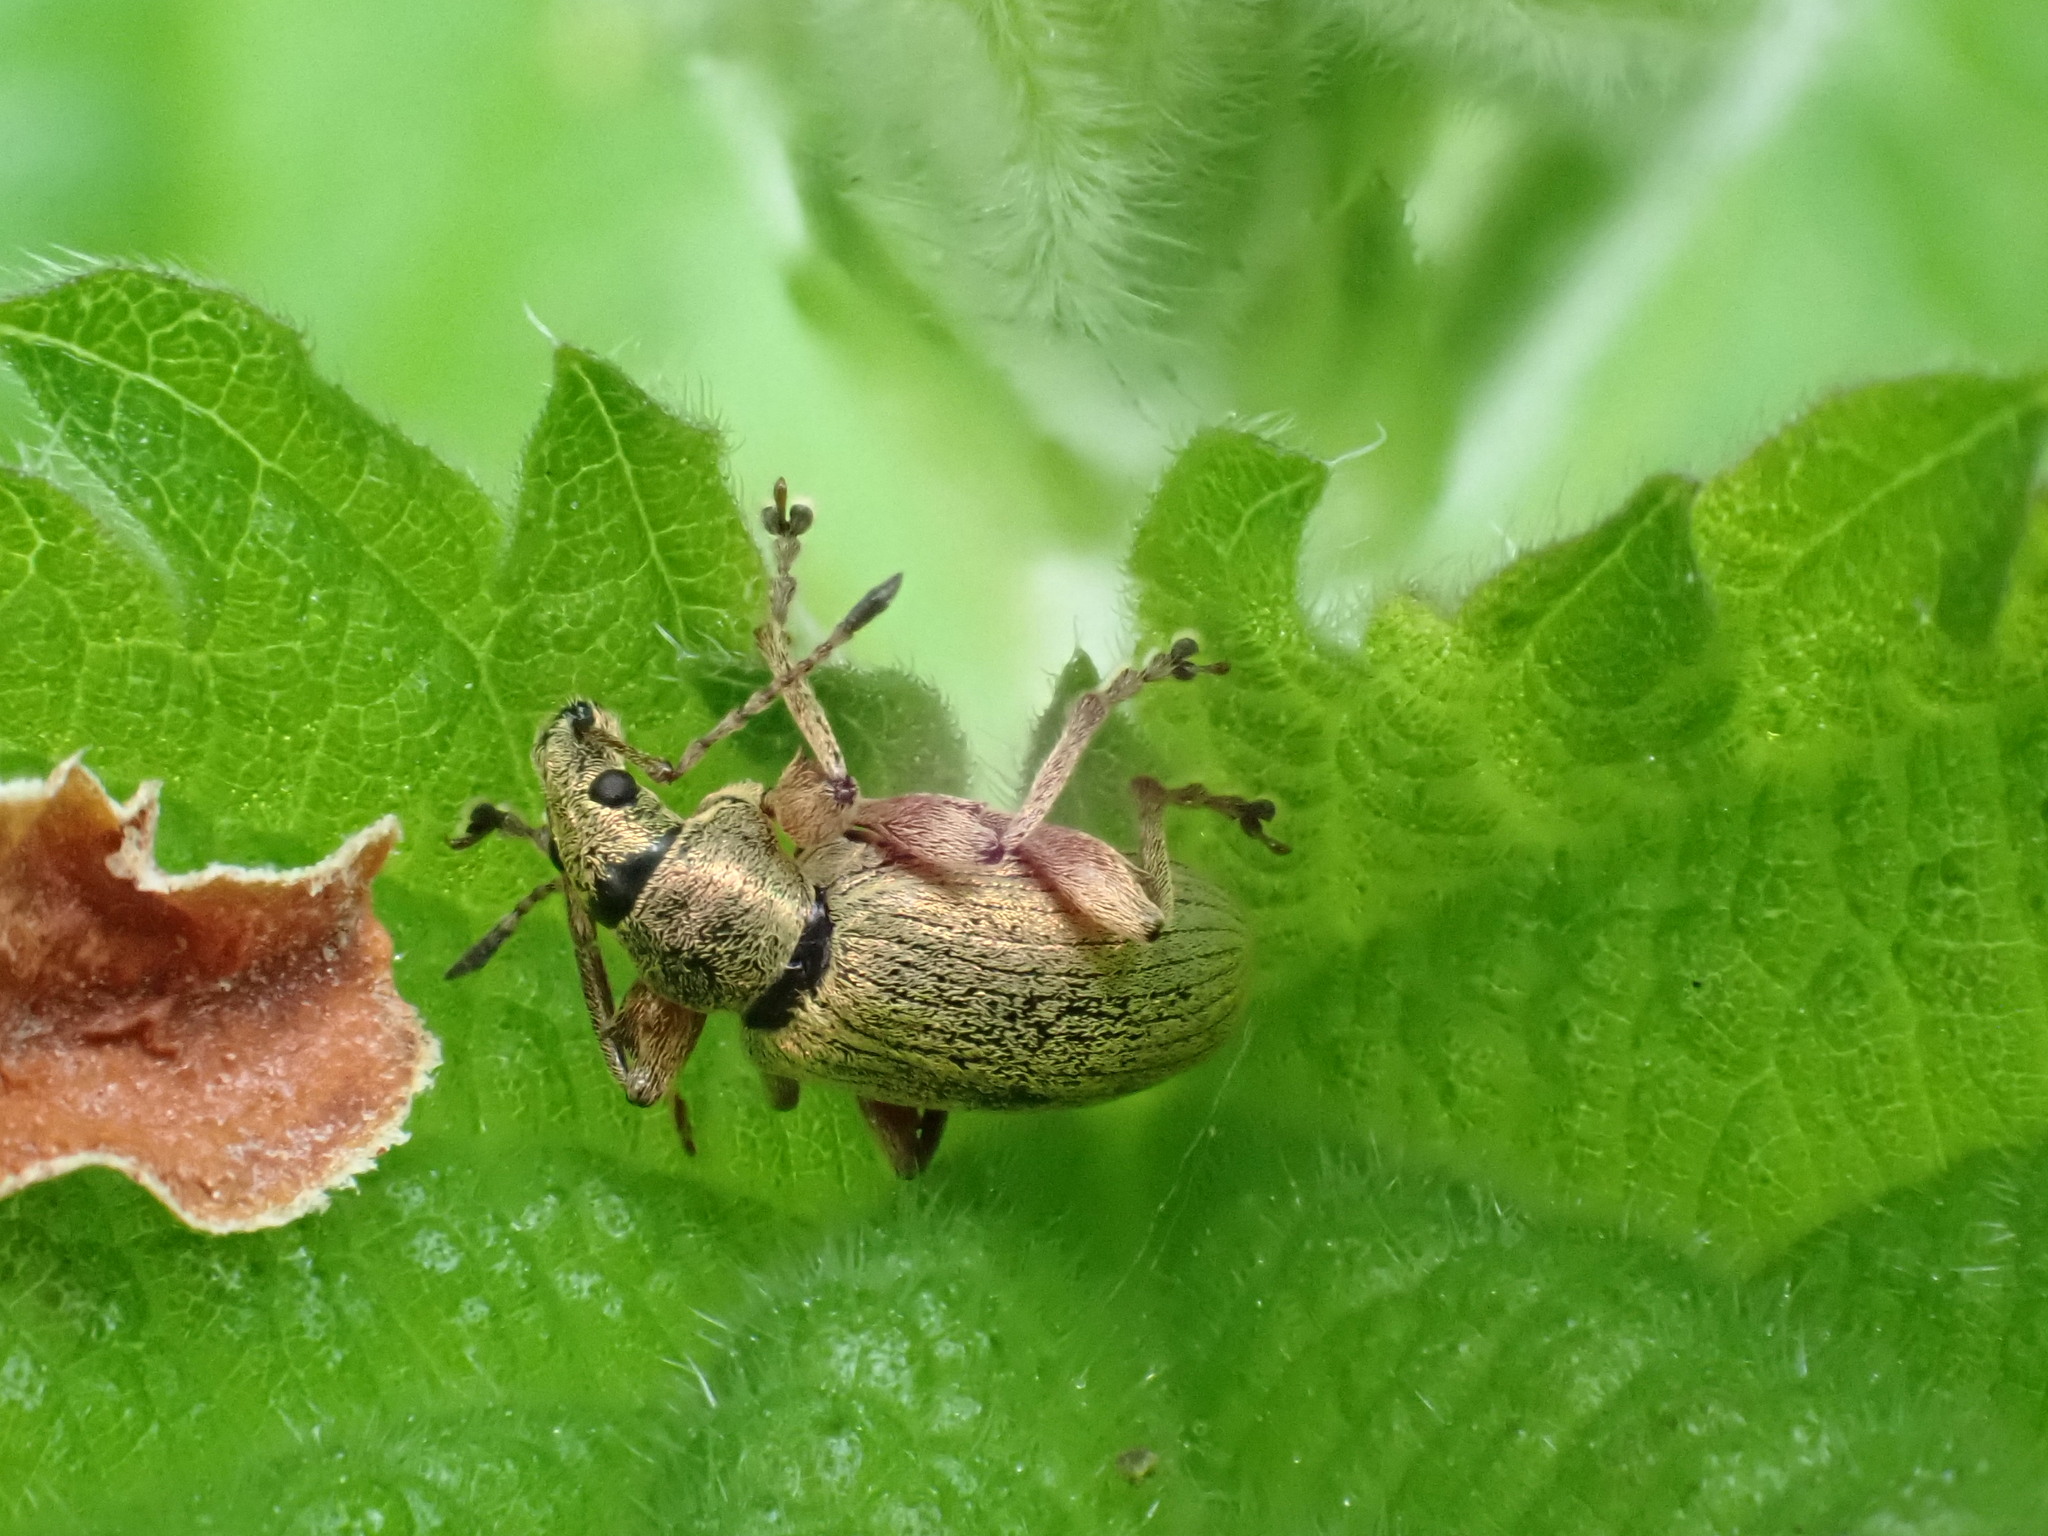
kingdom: Animalia
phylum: Arthropoda
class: Insecta
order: Coleoptera
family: Curculionidae
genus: Phyllobius
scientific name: Phyllobius pomaceus
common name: Green nettle weevil
